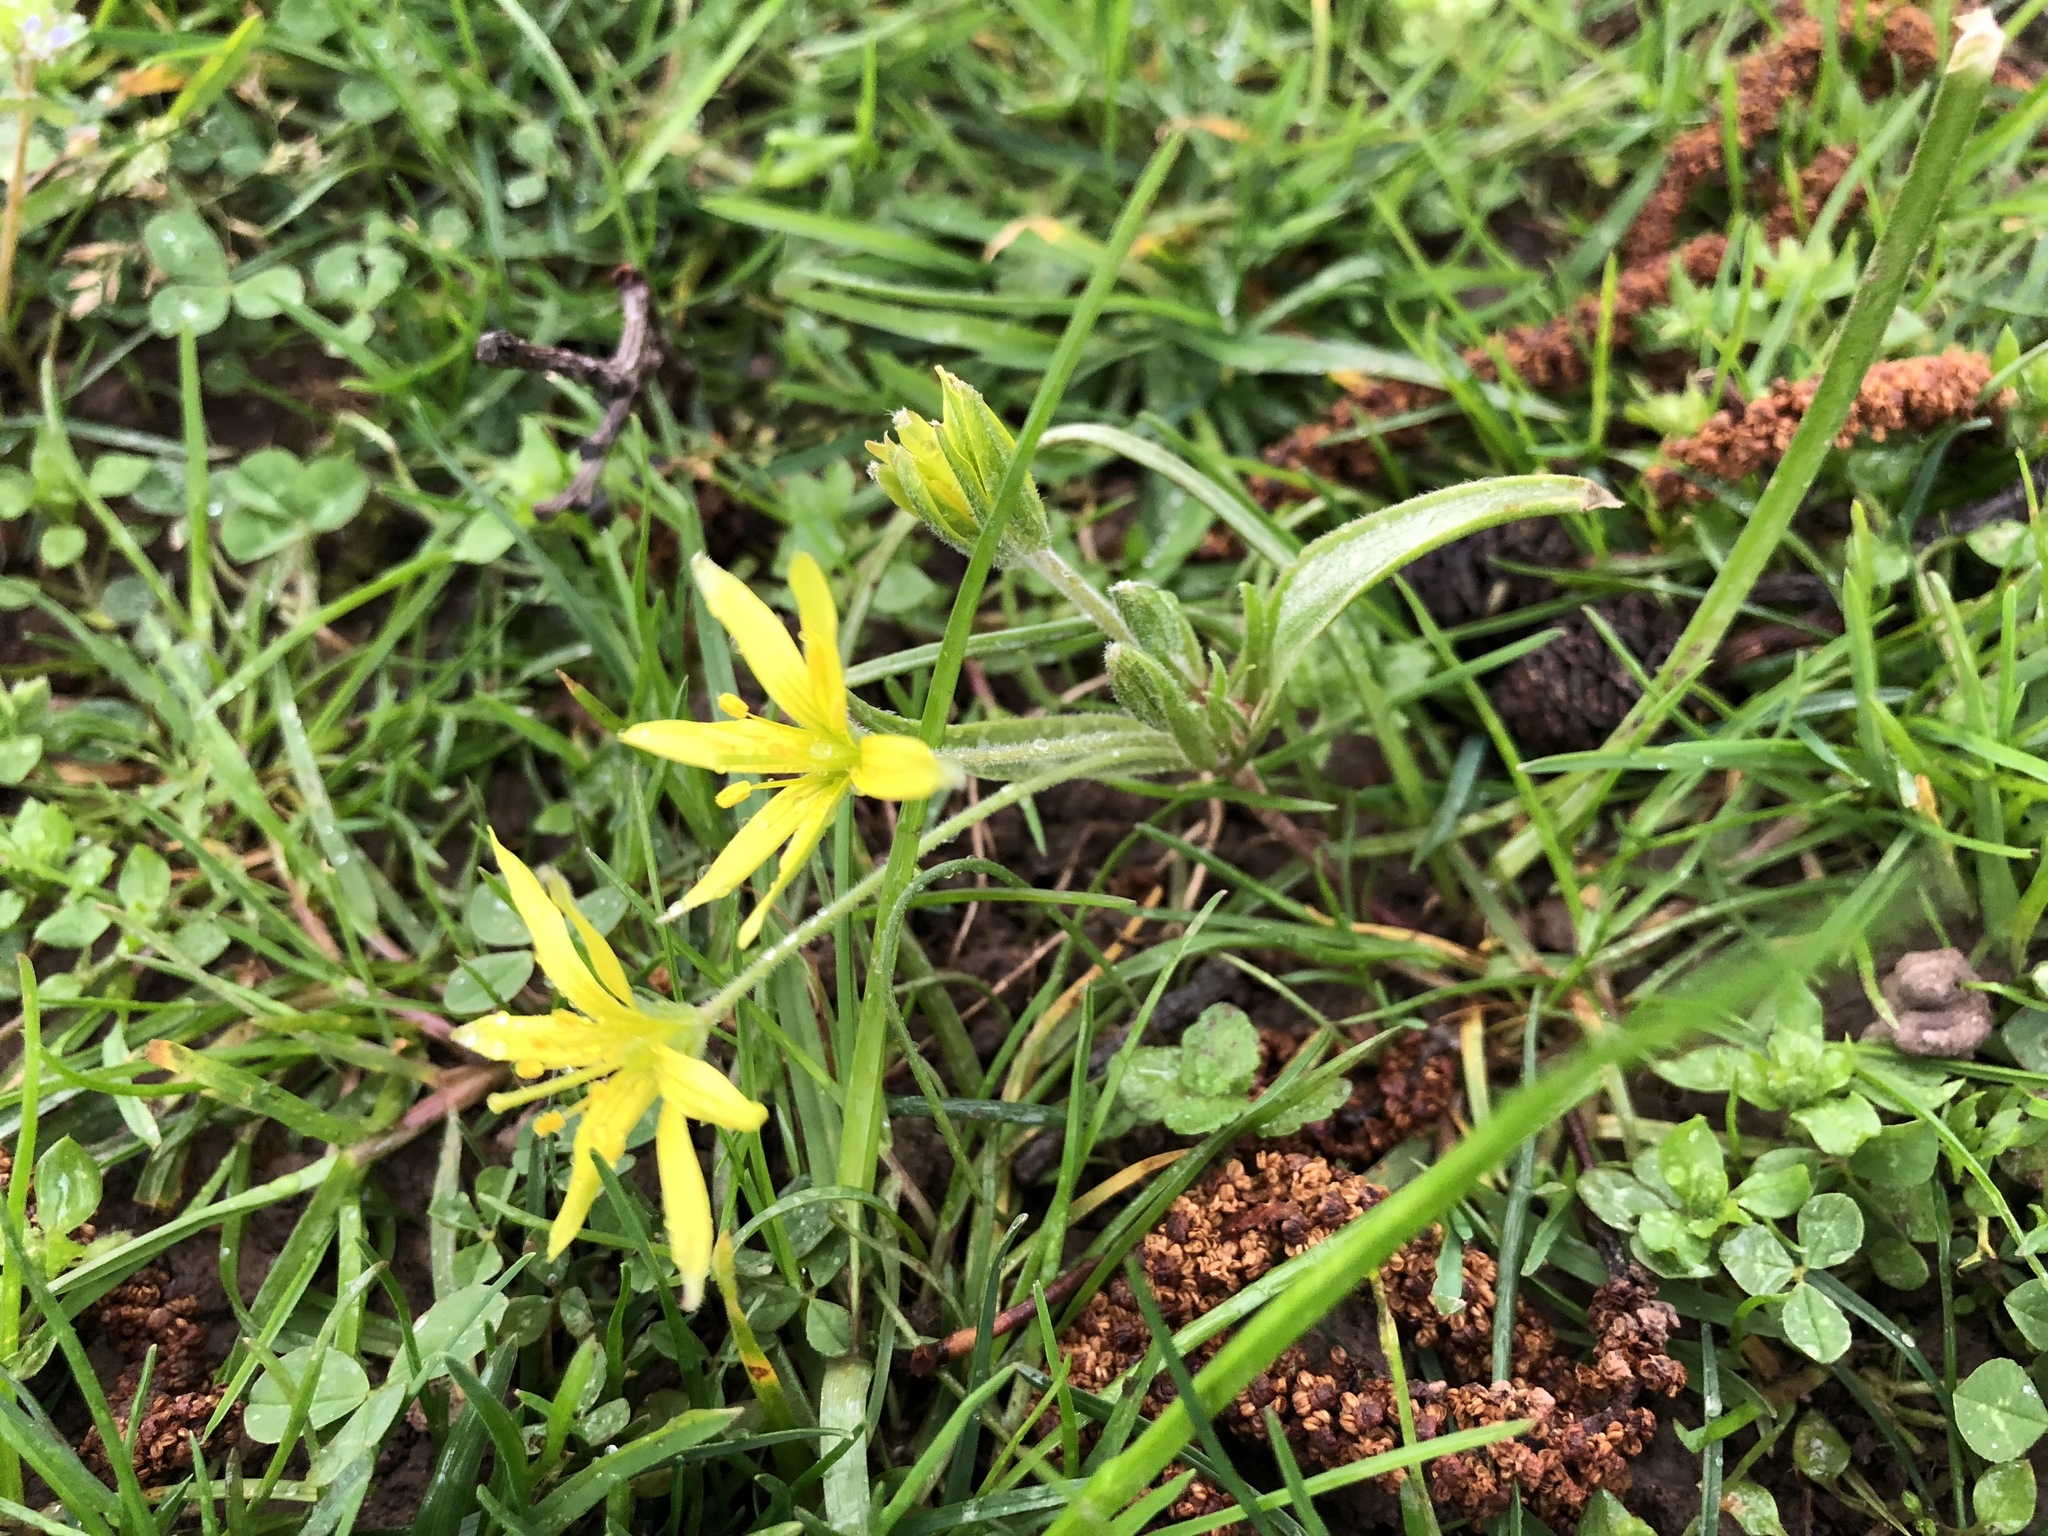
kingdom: Plantae
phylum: Tracheophyta
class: Liliopsida
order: Liliales
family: Liliaceae
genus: Gagea
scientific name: Gagea villosa
